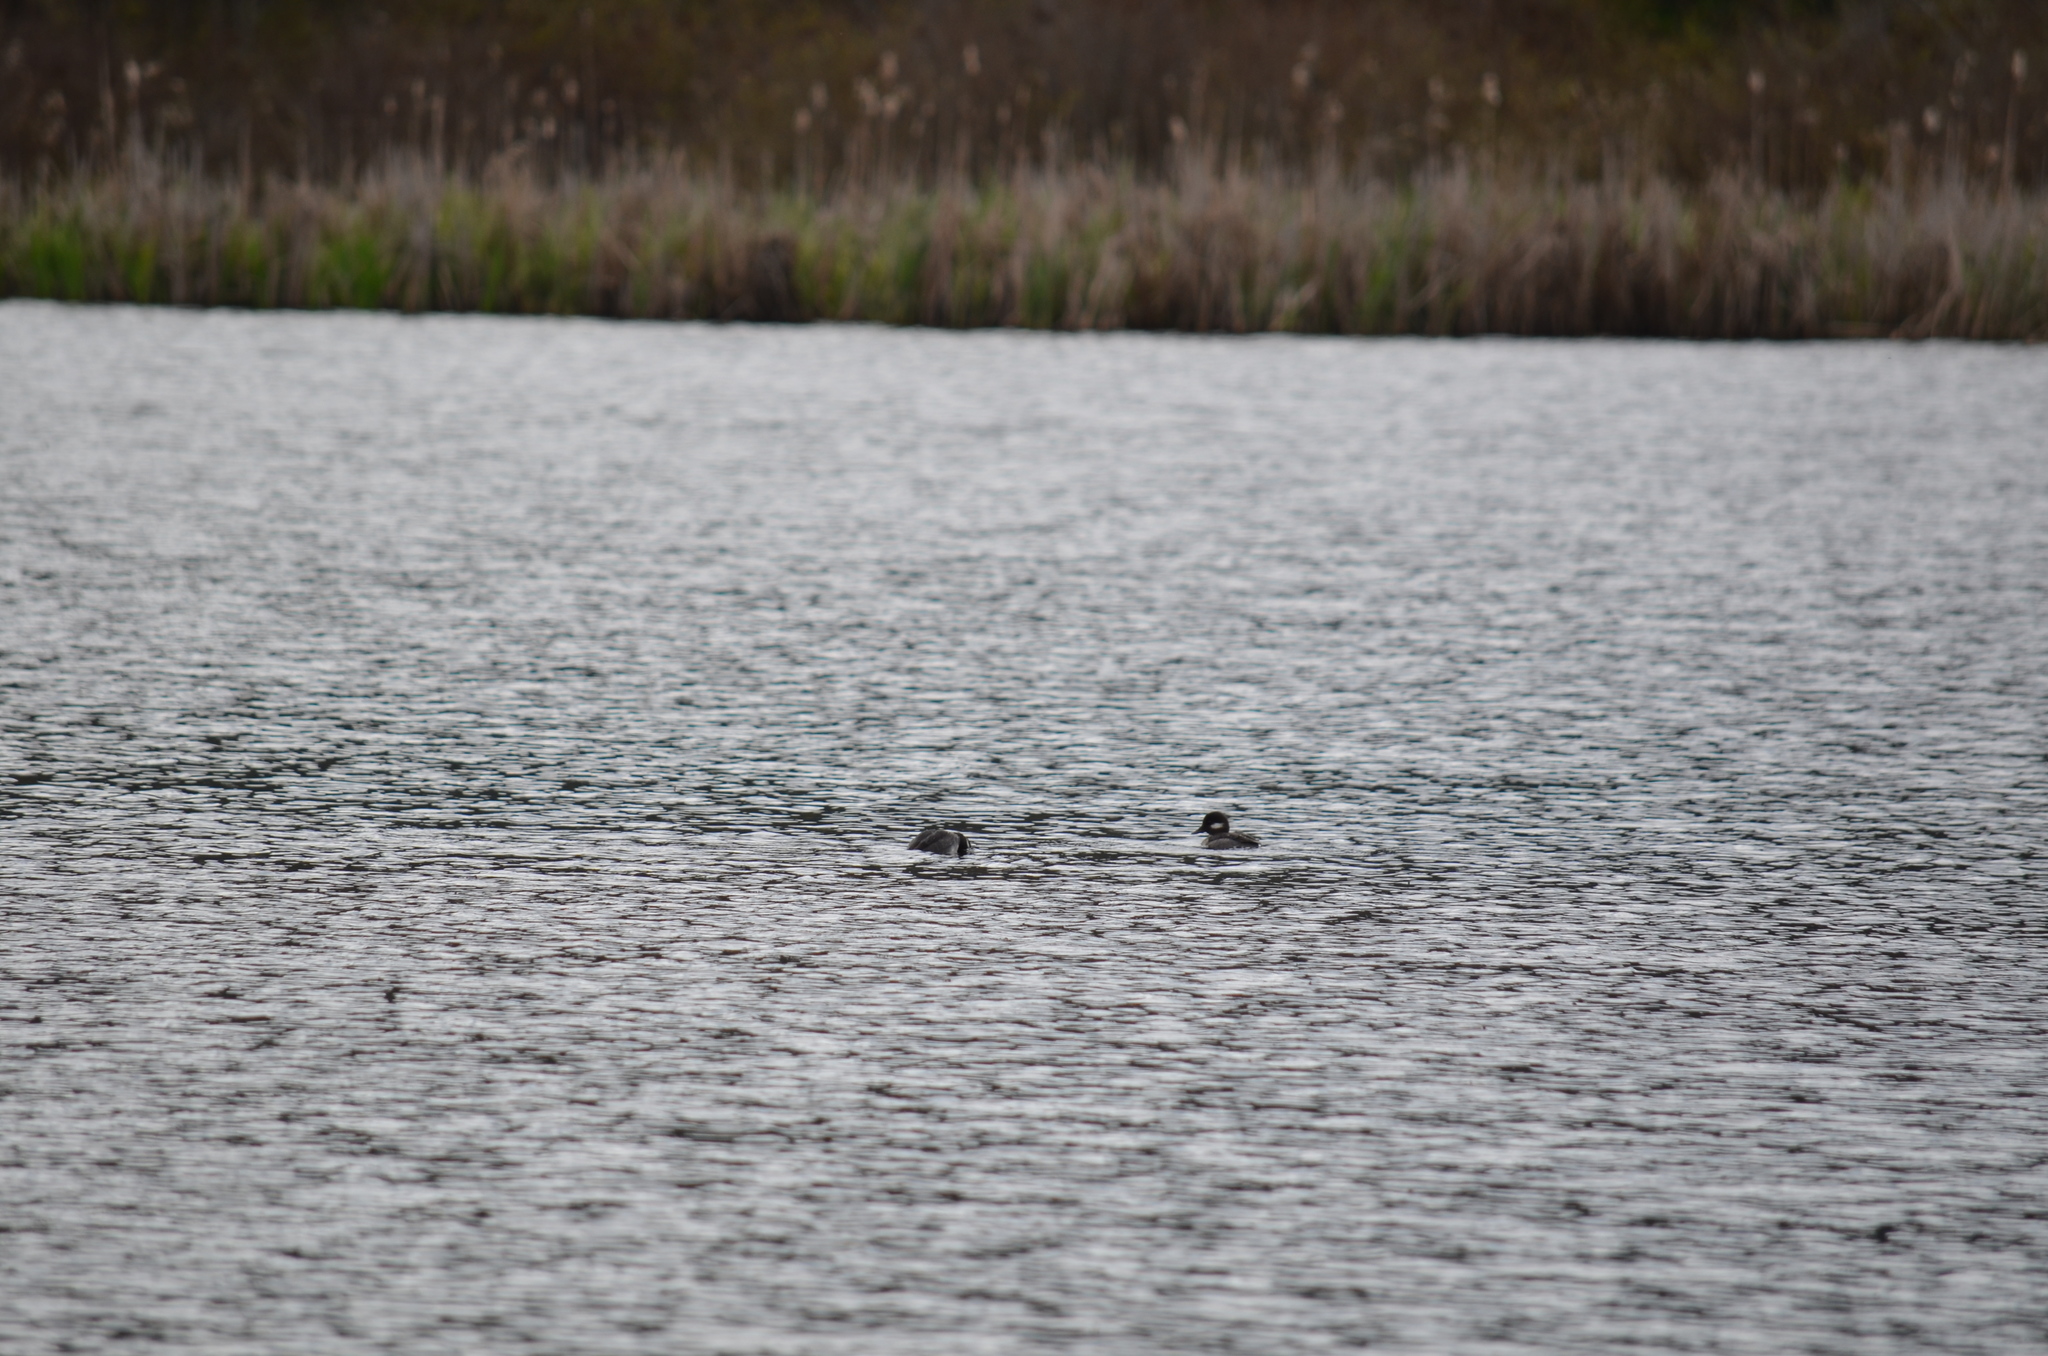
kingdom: Animalia
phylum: Chordata
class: Aves
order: Anseriformes
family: Anatidae
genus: Bucephala
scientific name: Bucephala albeola
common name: Bufflehead
